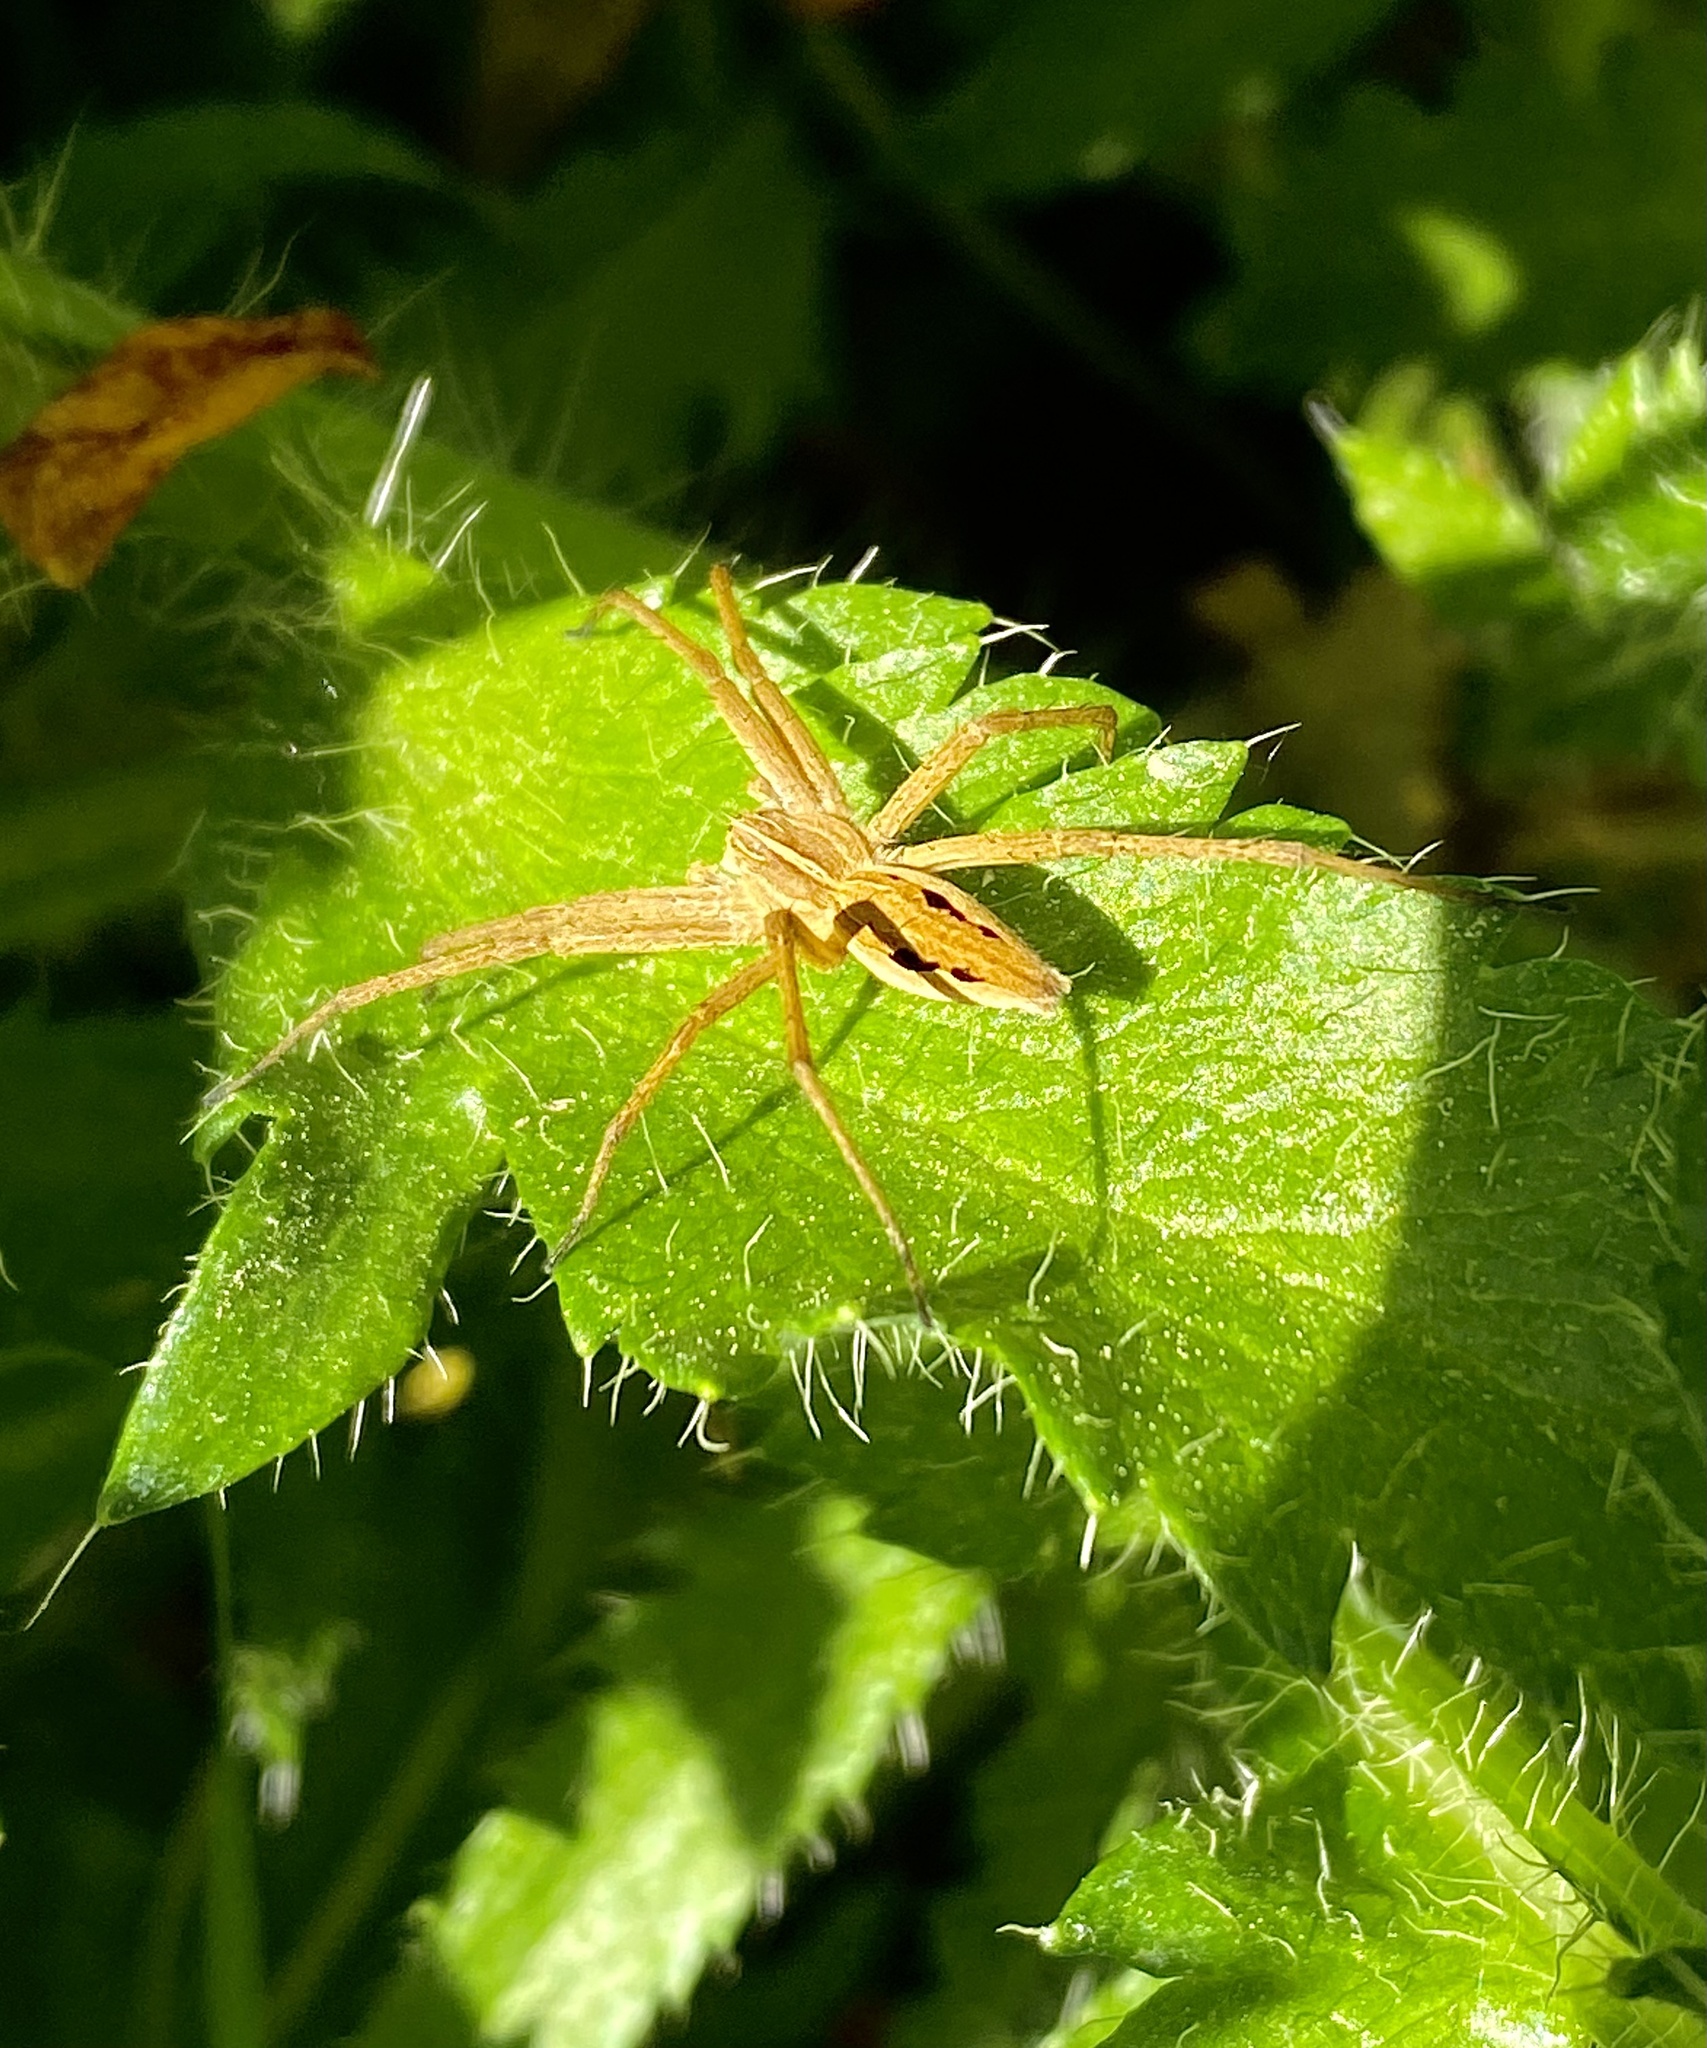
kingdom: Animalia
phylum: Arthropoda
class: Arachnida
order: Araneae
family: Pisauridae
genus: Pisaura
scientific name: Pisaura
